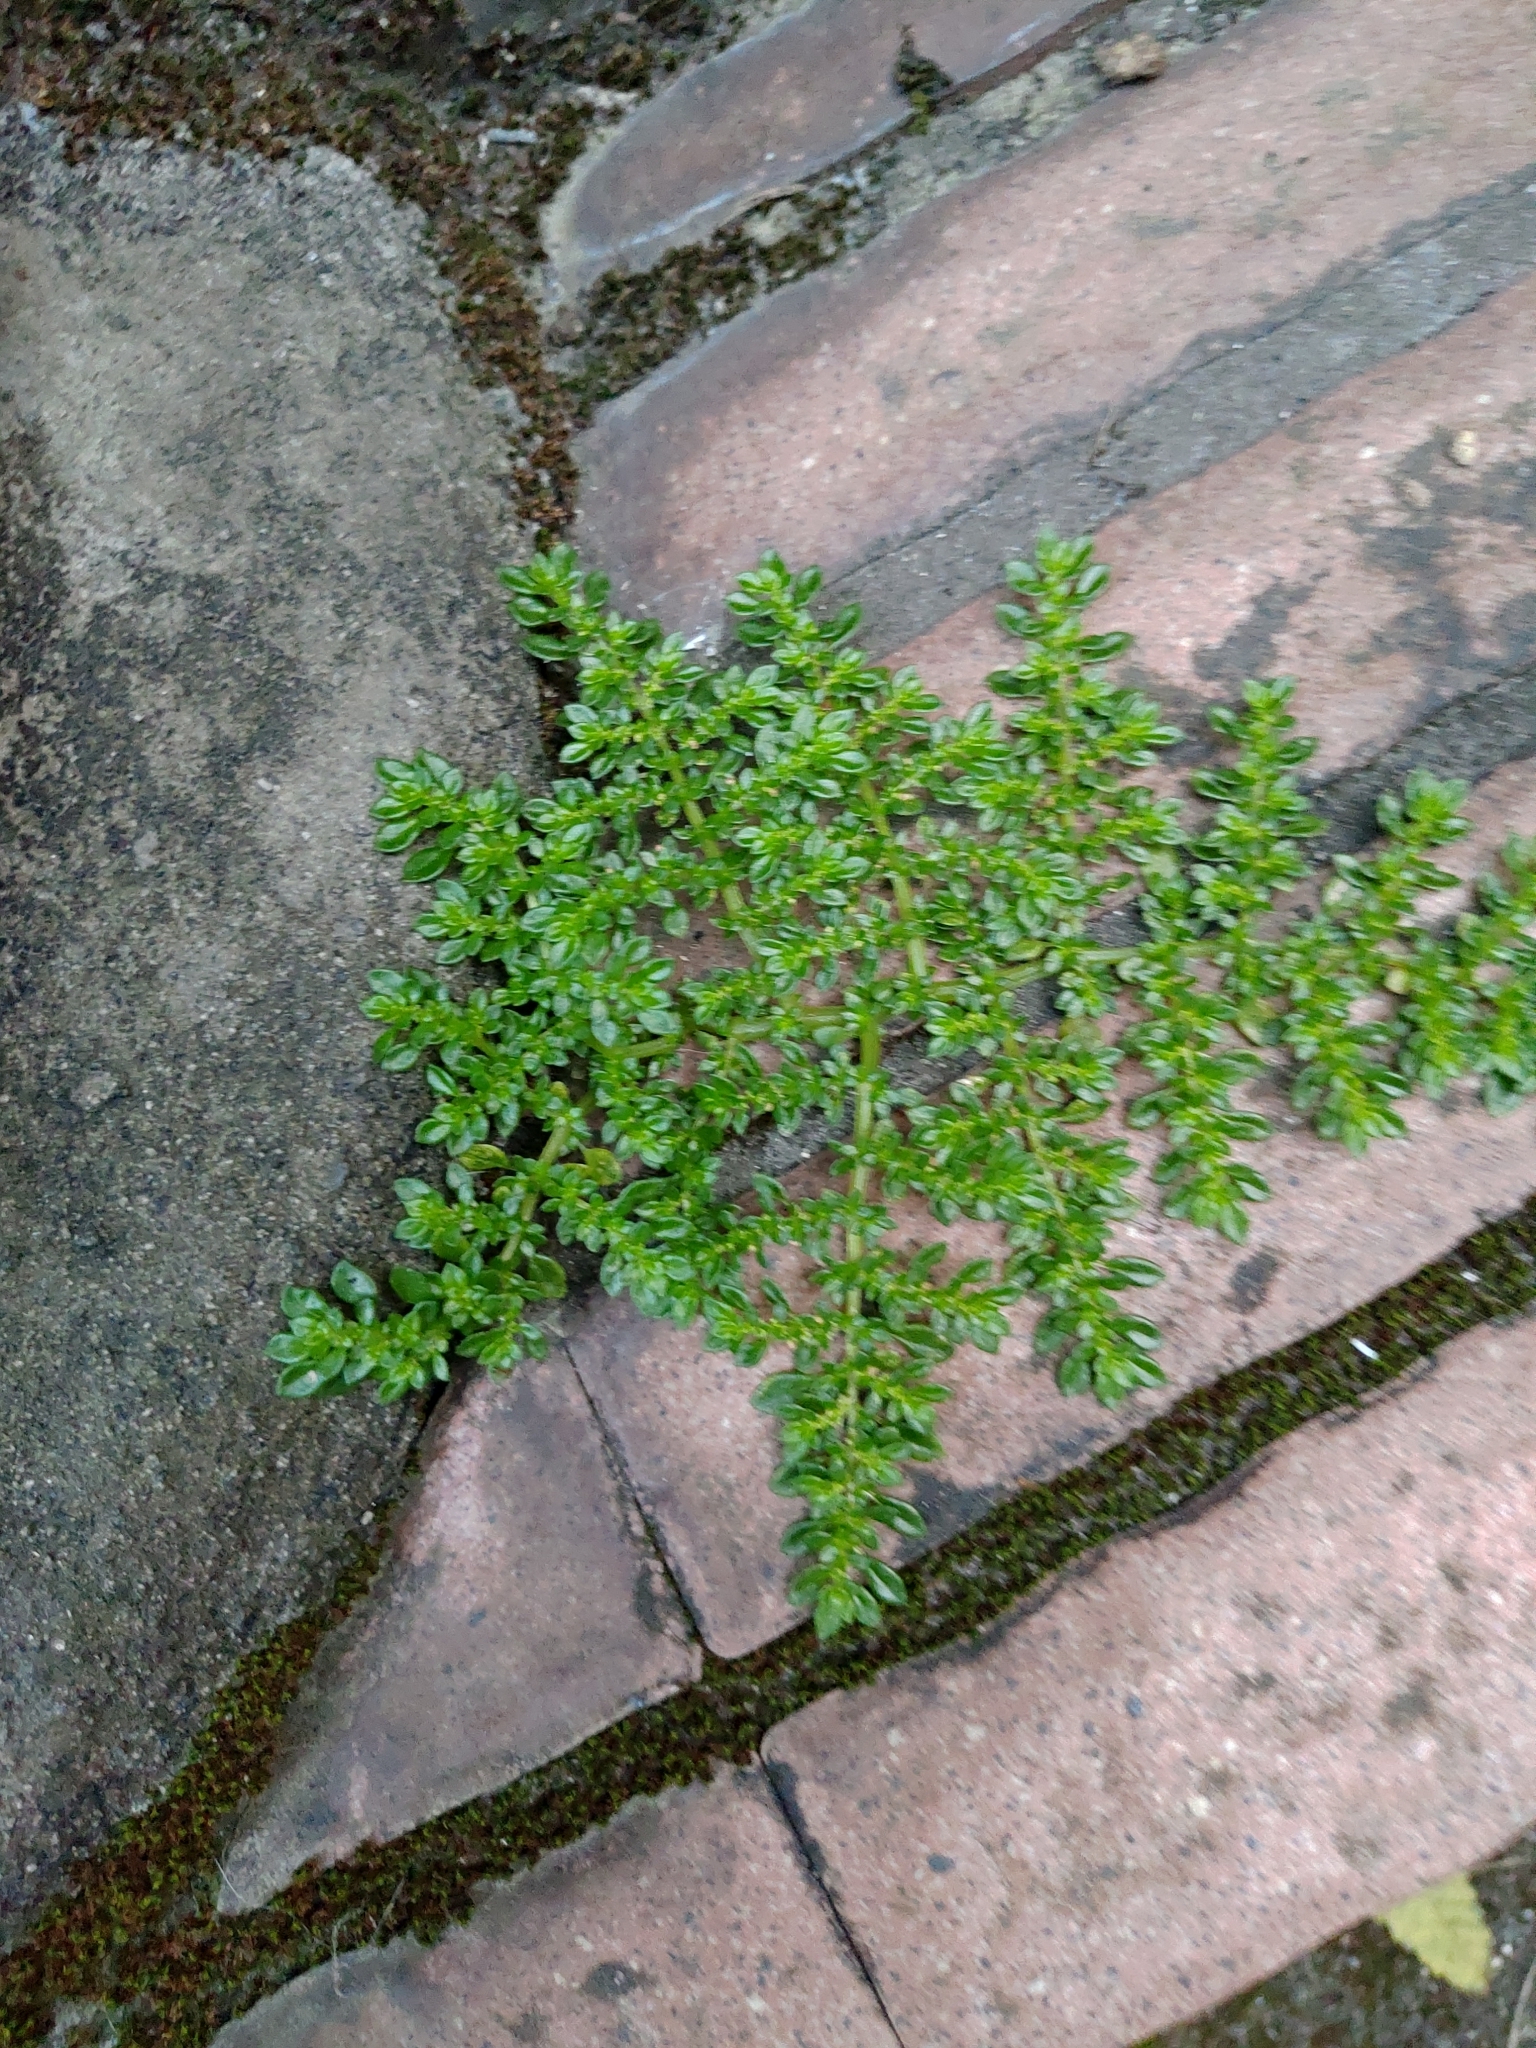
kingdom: Plantae
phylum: Tracheophyta
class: Magnoliopsida
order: Rosales
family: Urticaceae
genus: Pilea
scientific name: Pilea microphylla
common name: Artillery-plant
